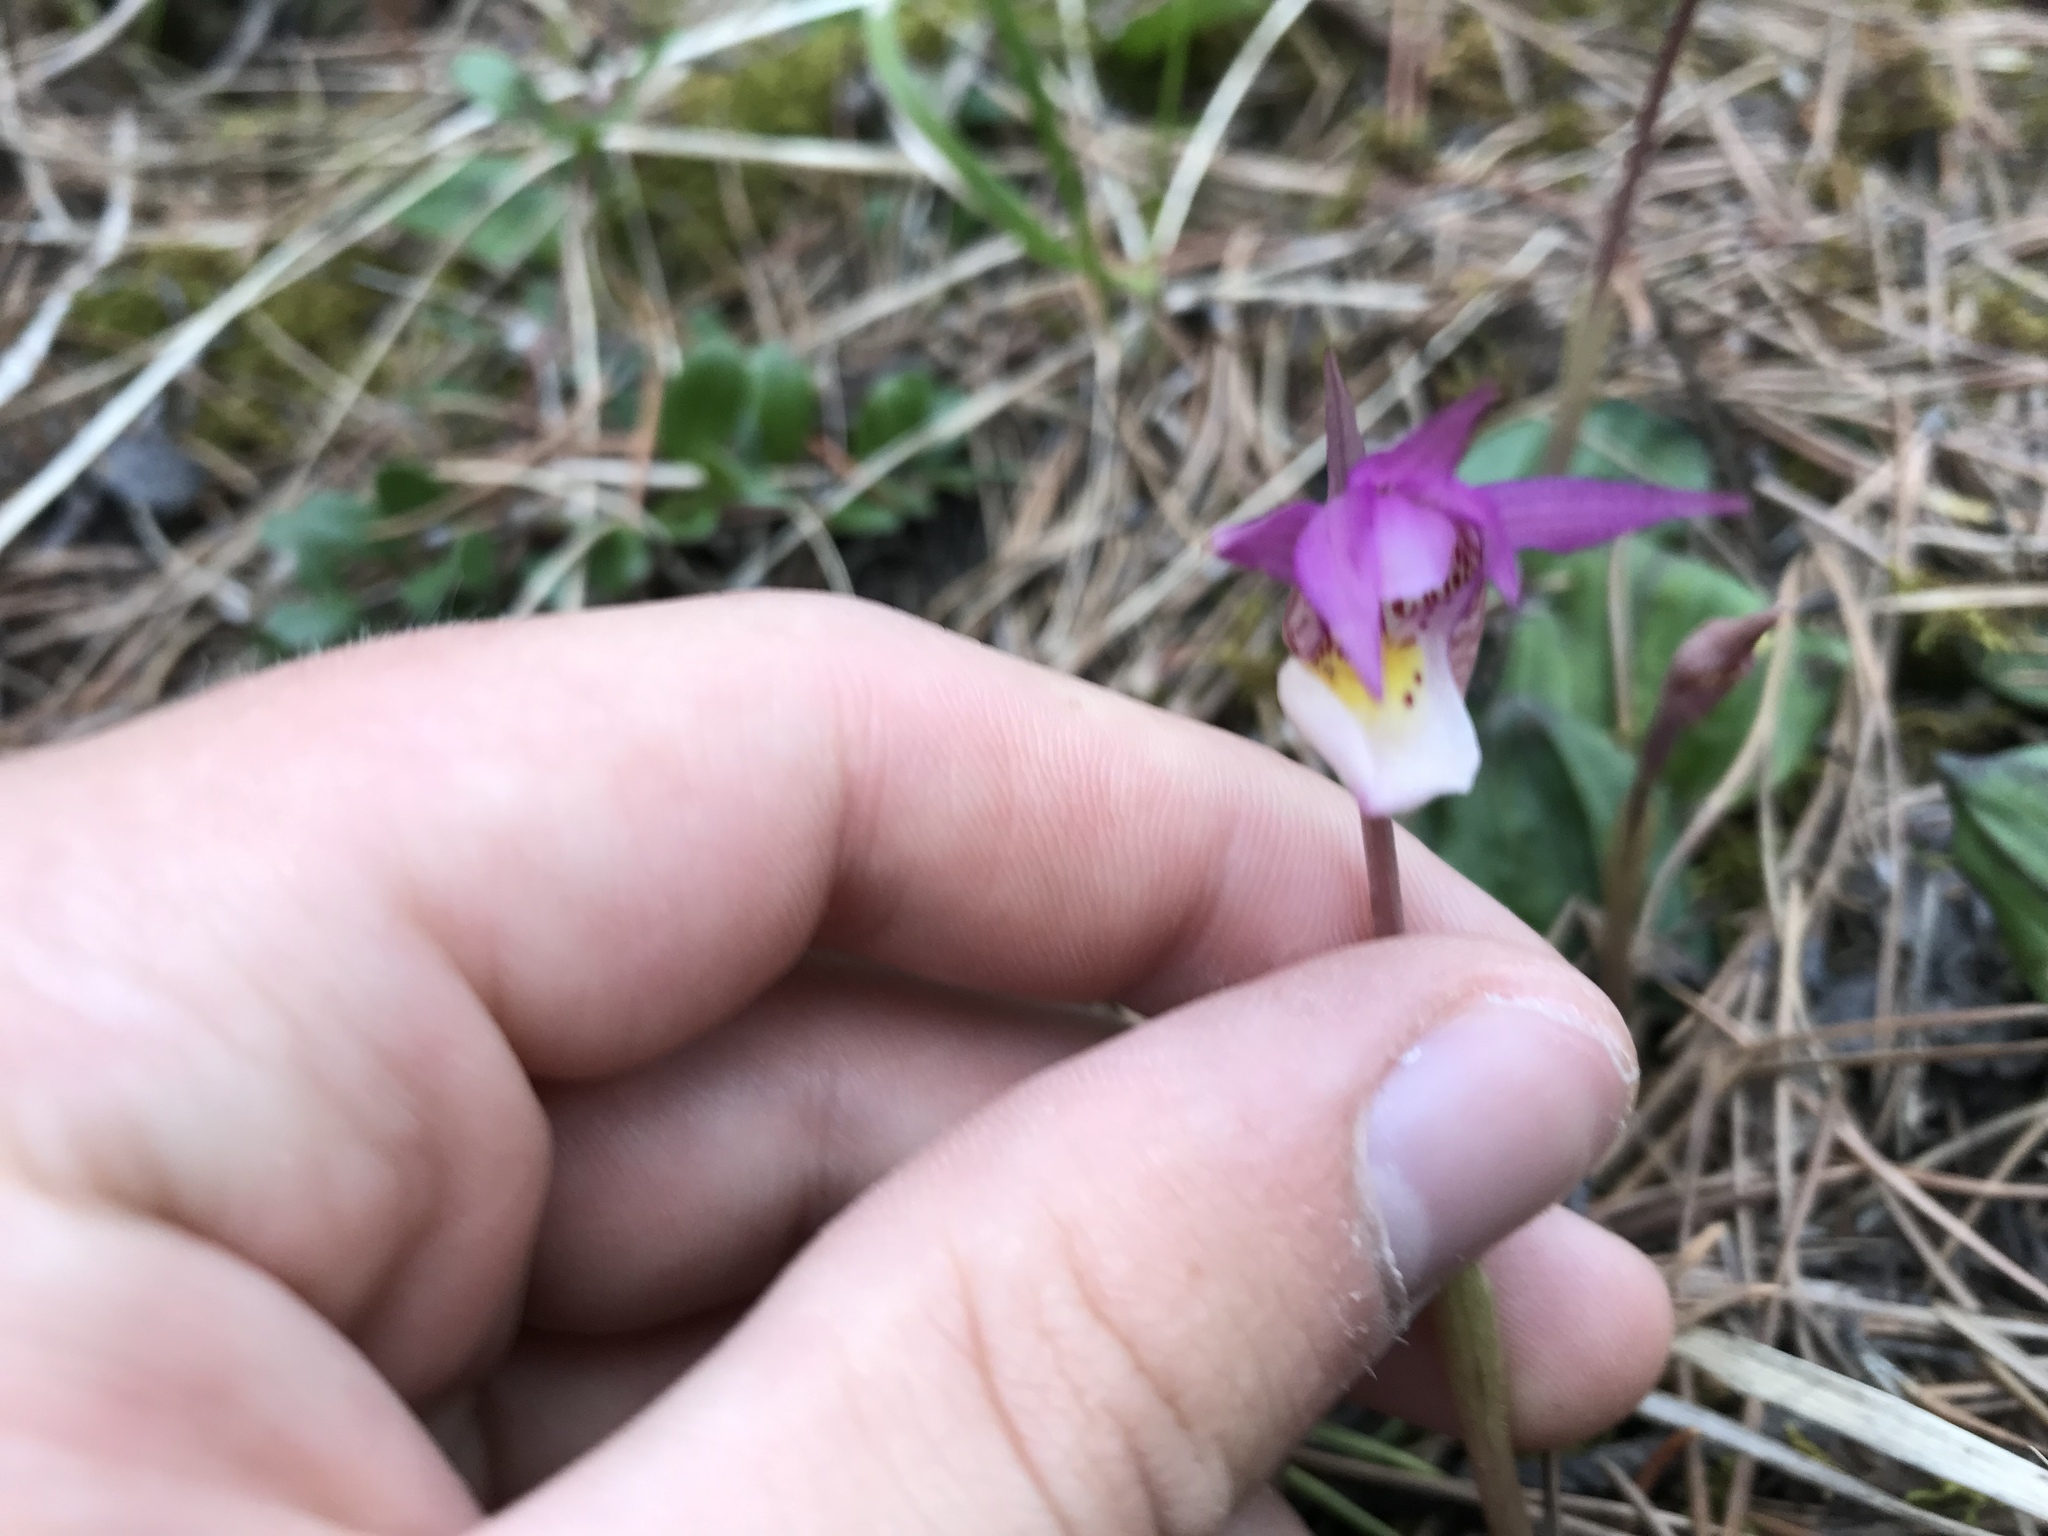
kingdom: Plantae
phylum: Tracheophyta
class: Liliopsida
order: Asparagales
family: Orchidaceae
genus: Calypso
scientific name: Calypso bulbosa
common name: Calypso
